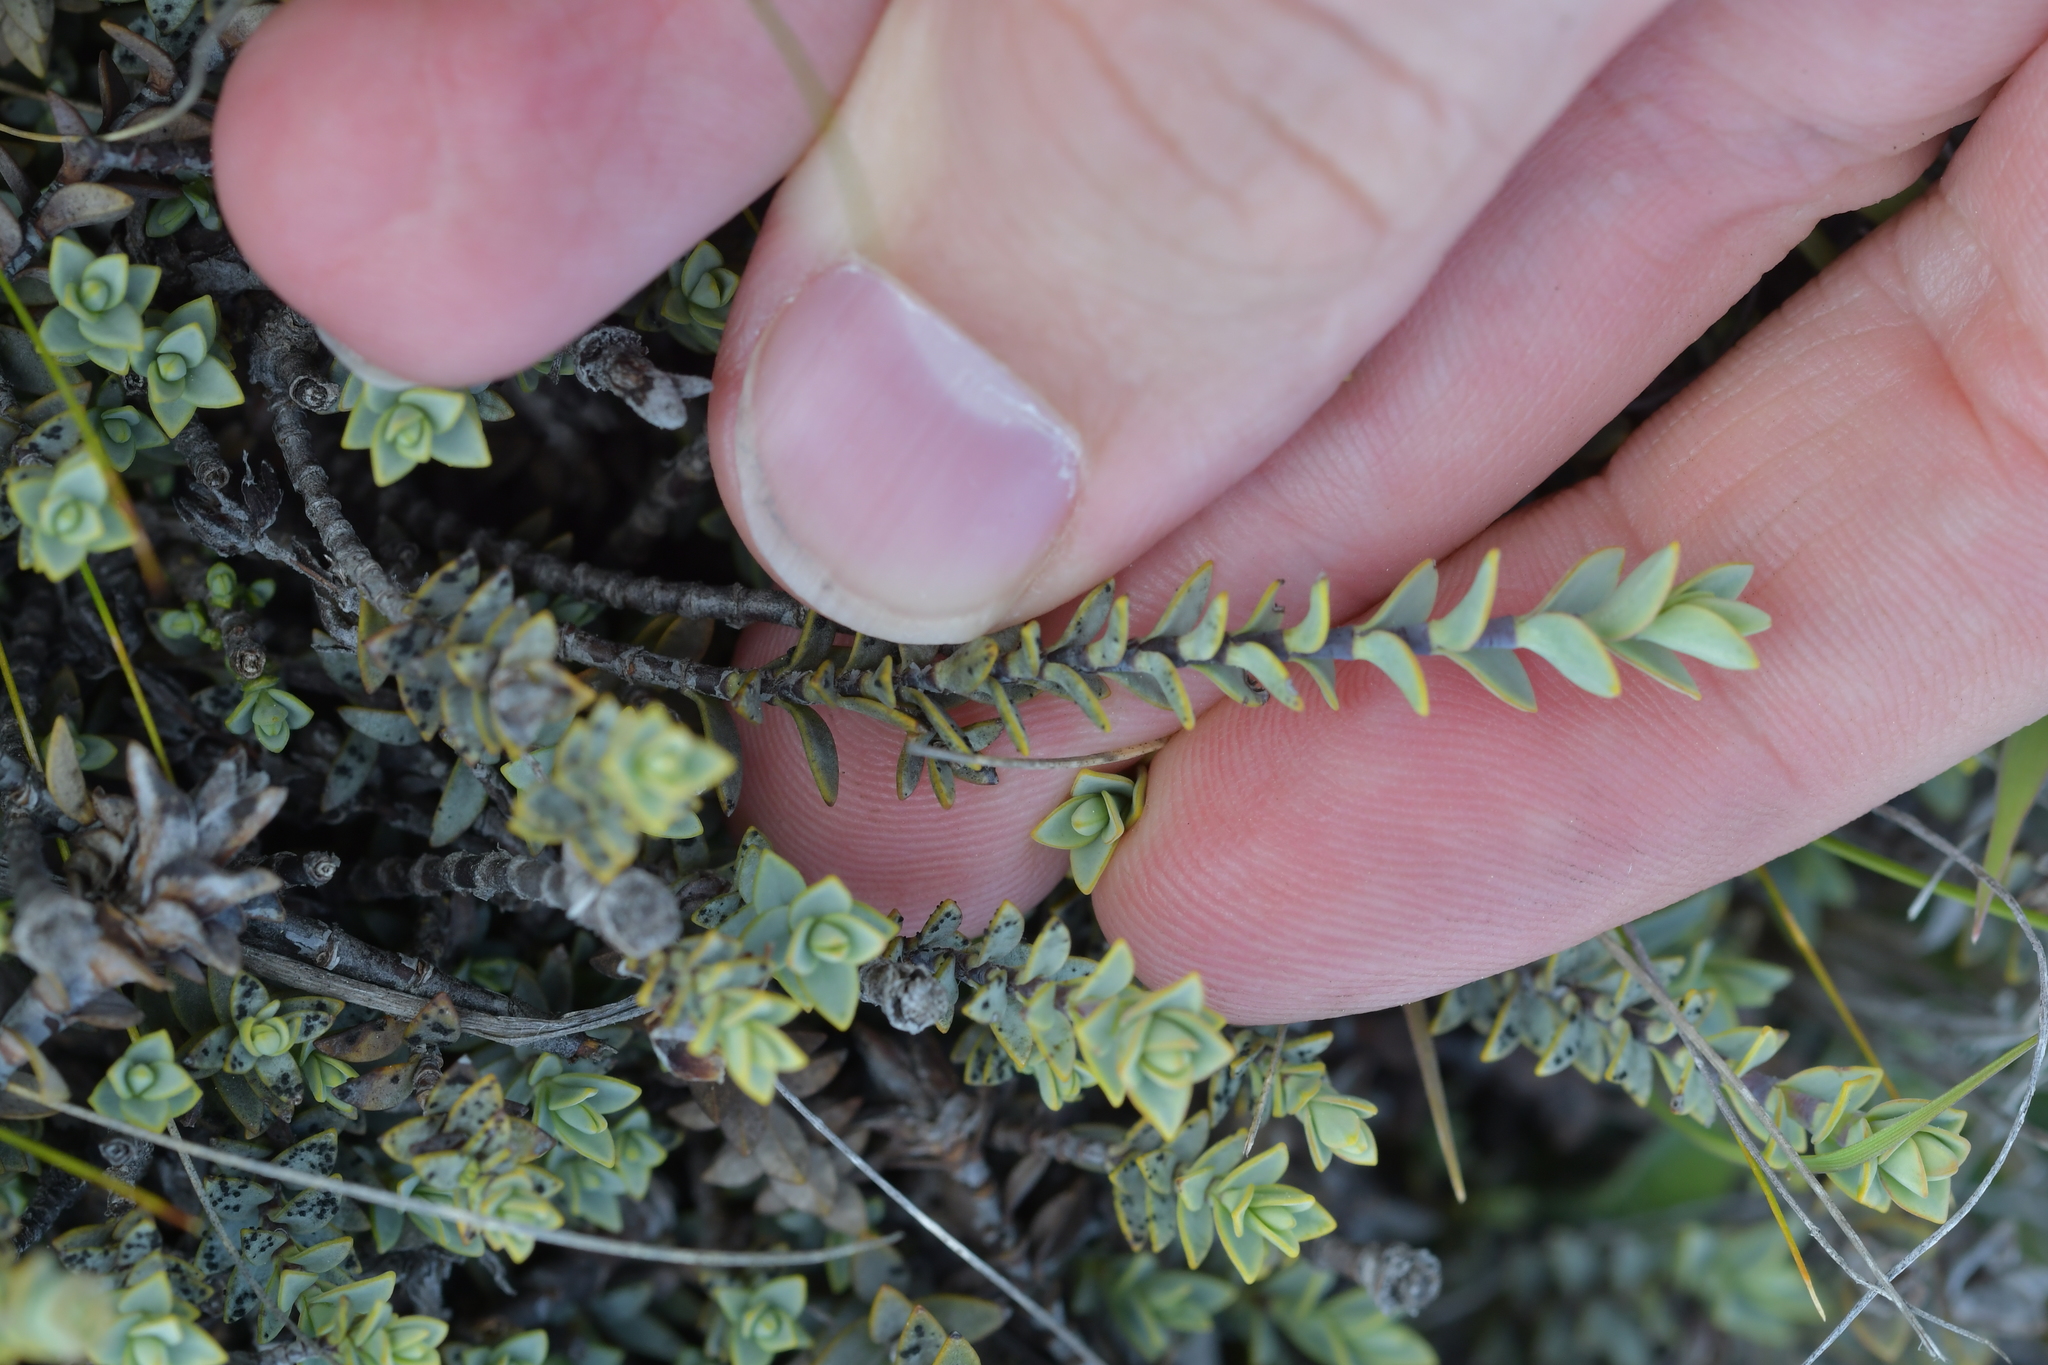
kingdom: Plantae
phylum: Tracheophyta
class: Magnoliopsida
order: Lamiales
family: Plantaginaceae
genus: Veronica
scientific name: Veronica pimeleoides
